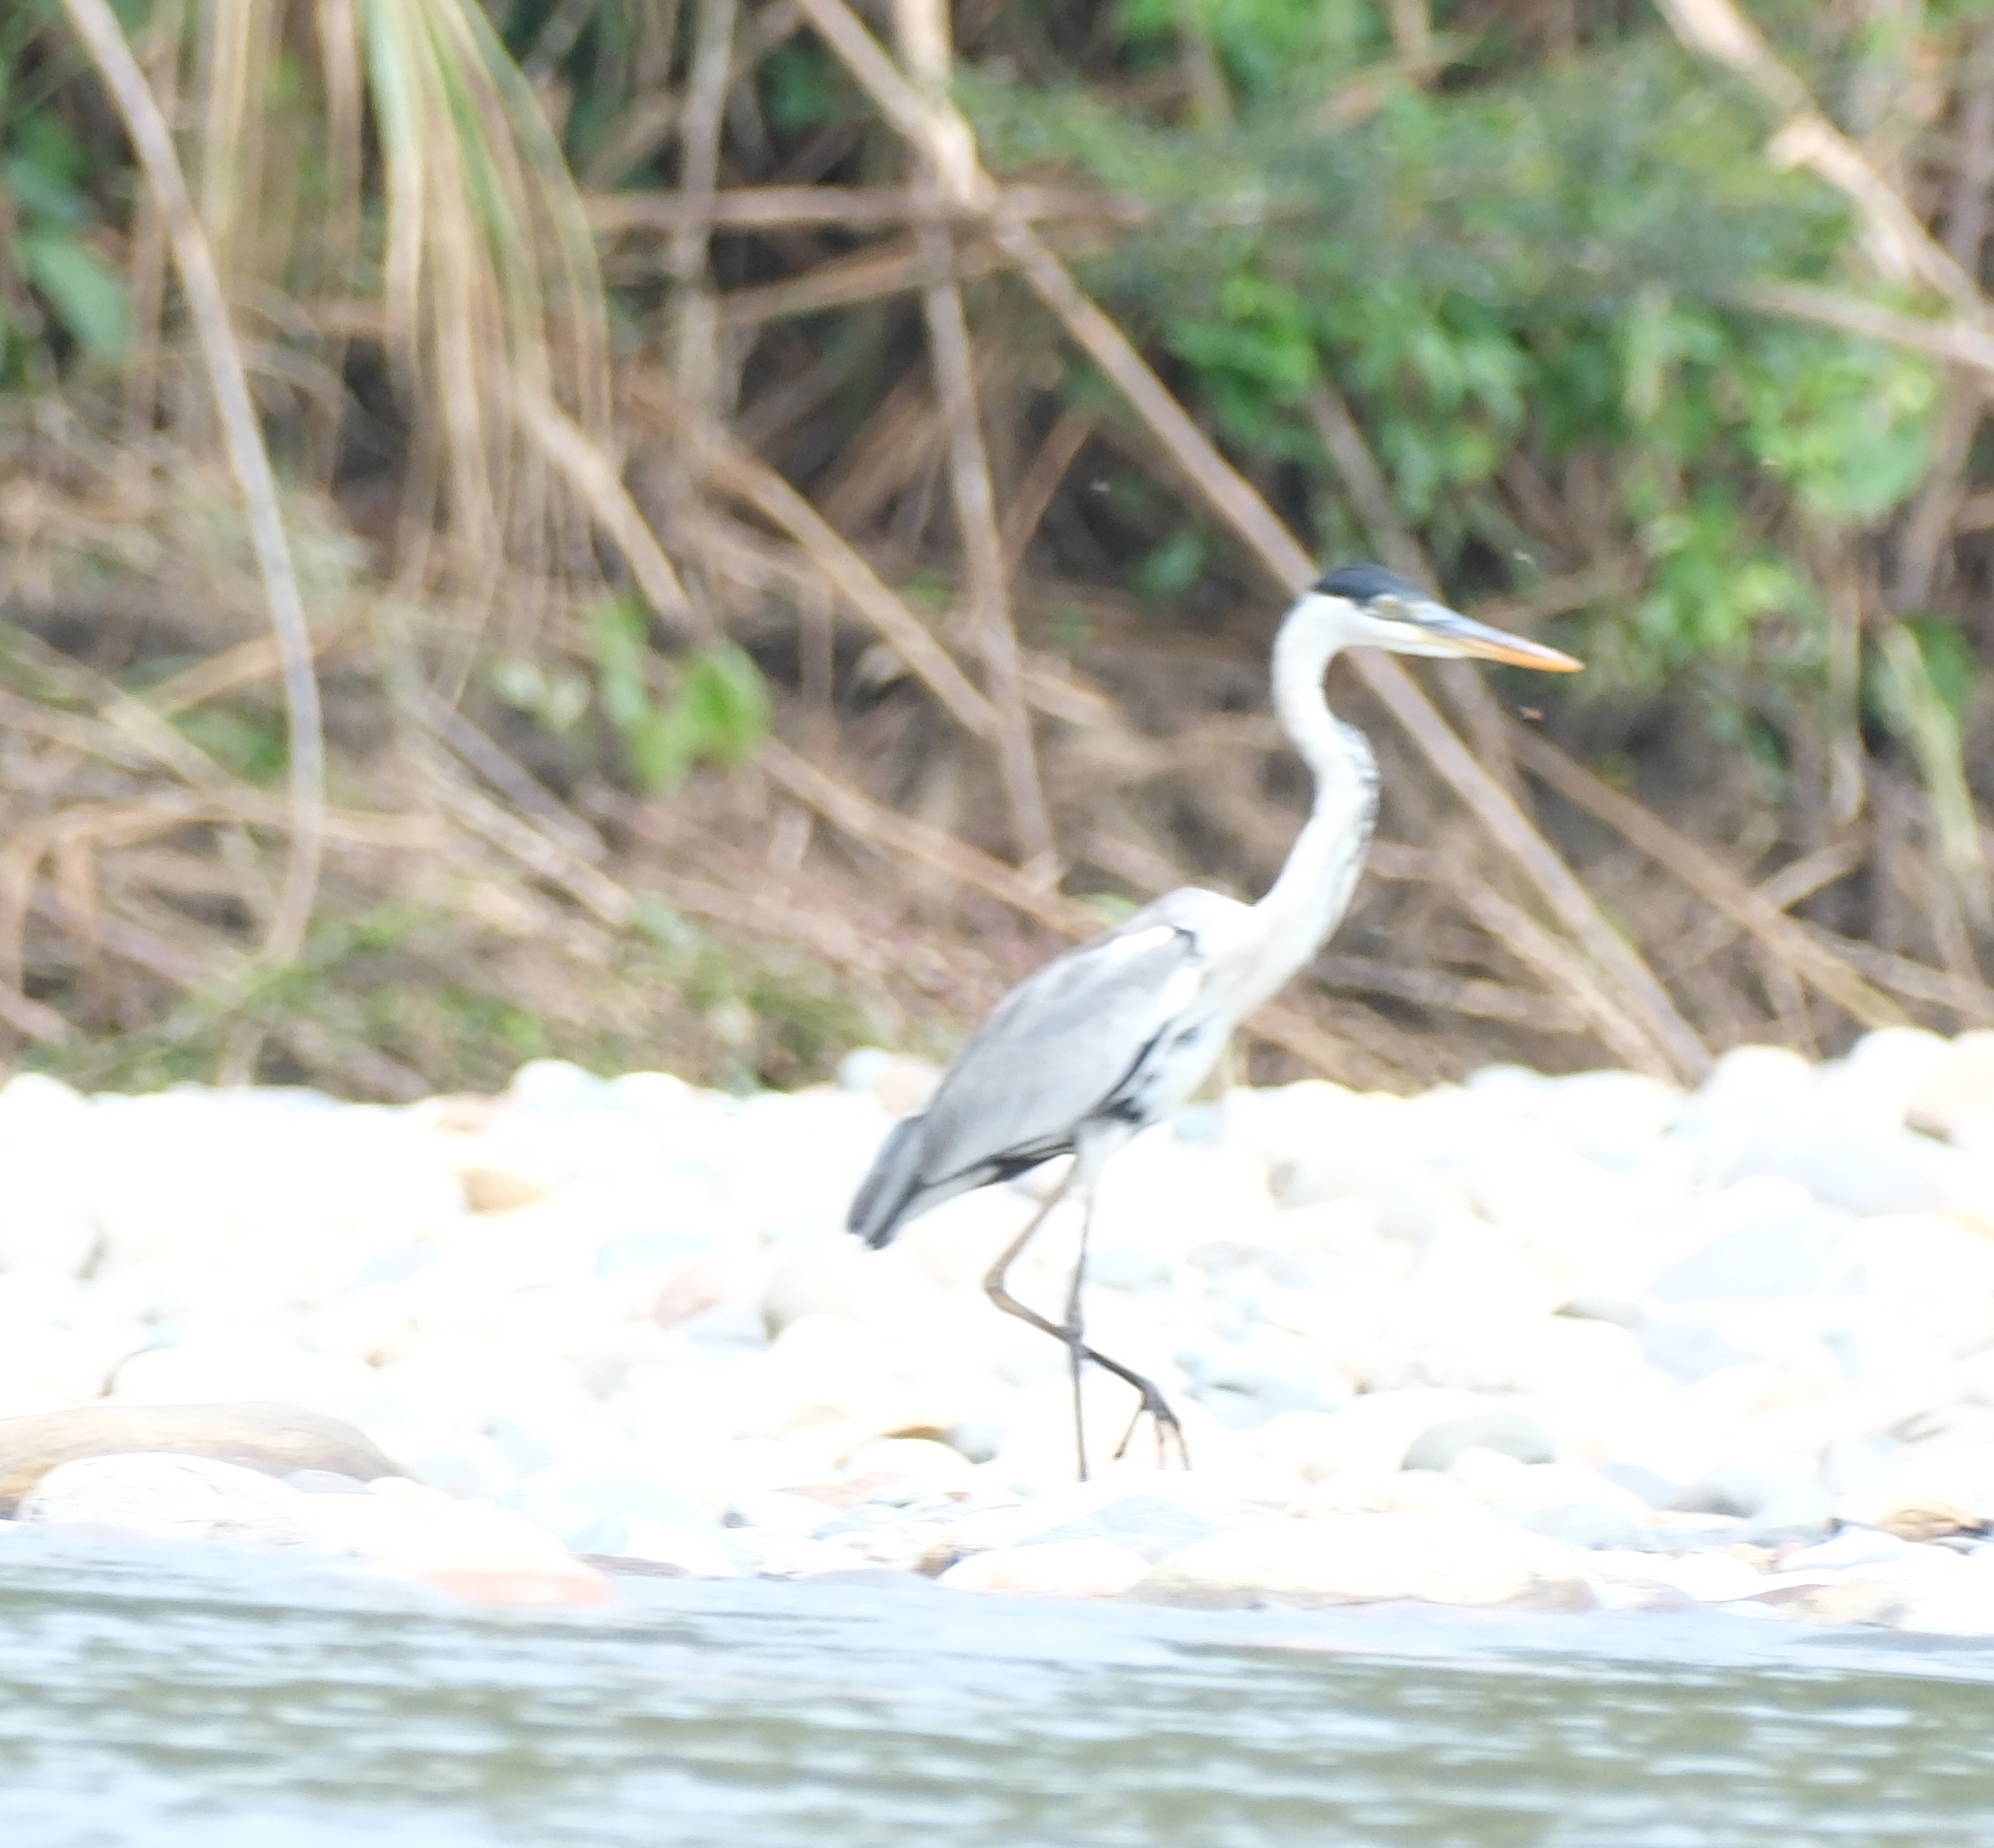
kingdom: Animalia
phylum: Chordata
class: Aves
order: Pelecaniformes
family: Ardeidae
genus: Ardea
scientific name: Ardea cocoi
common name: Cocoi heron
